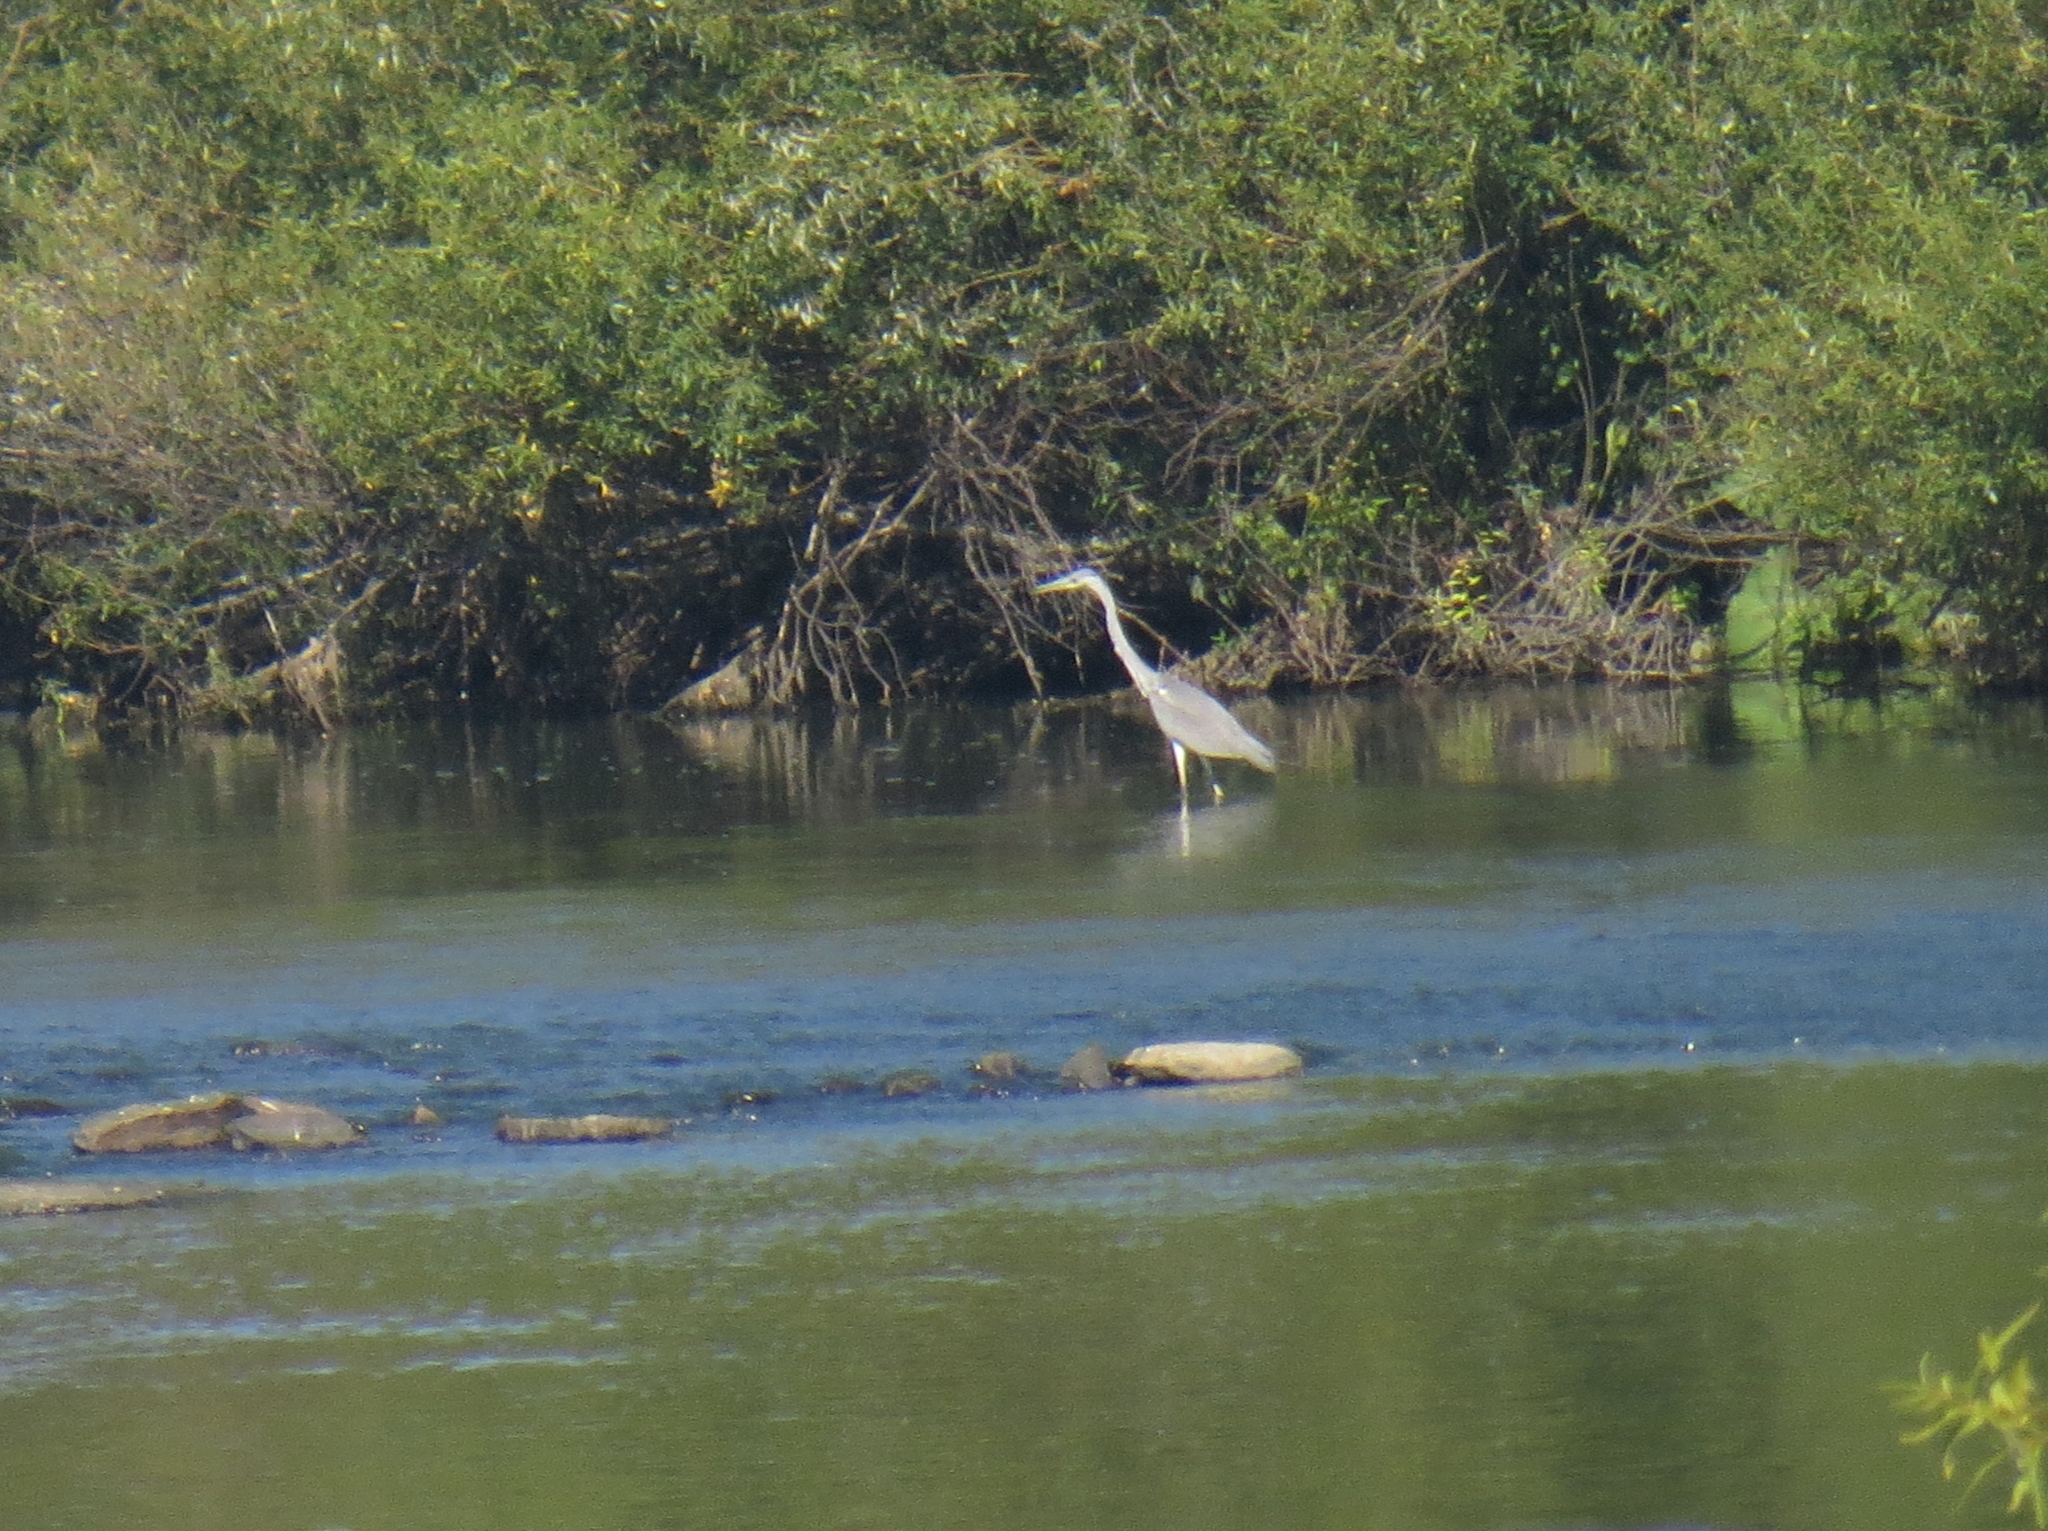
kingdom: Animalia
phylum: Chordata
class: Aves
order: Pelecaniformes
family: Ardeidae
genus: Ardea
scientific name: Ardea cinerea
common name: Grey heron
